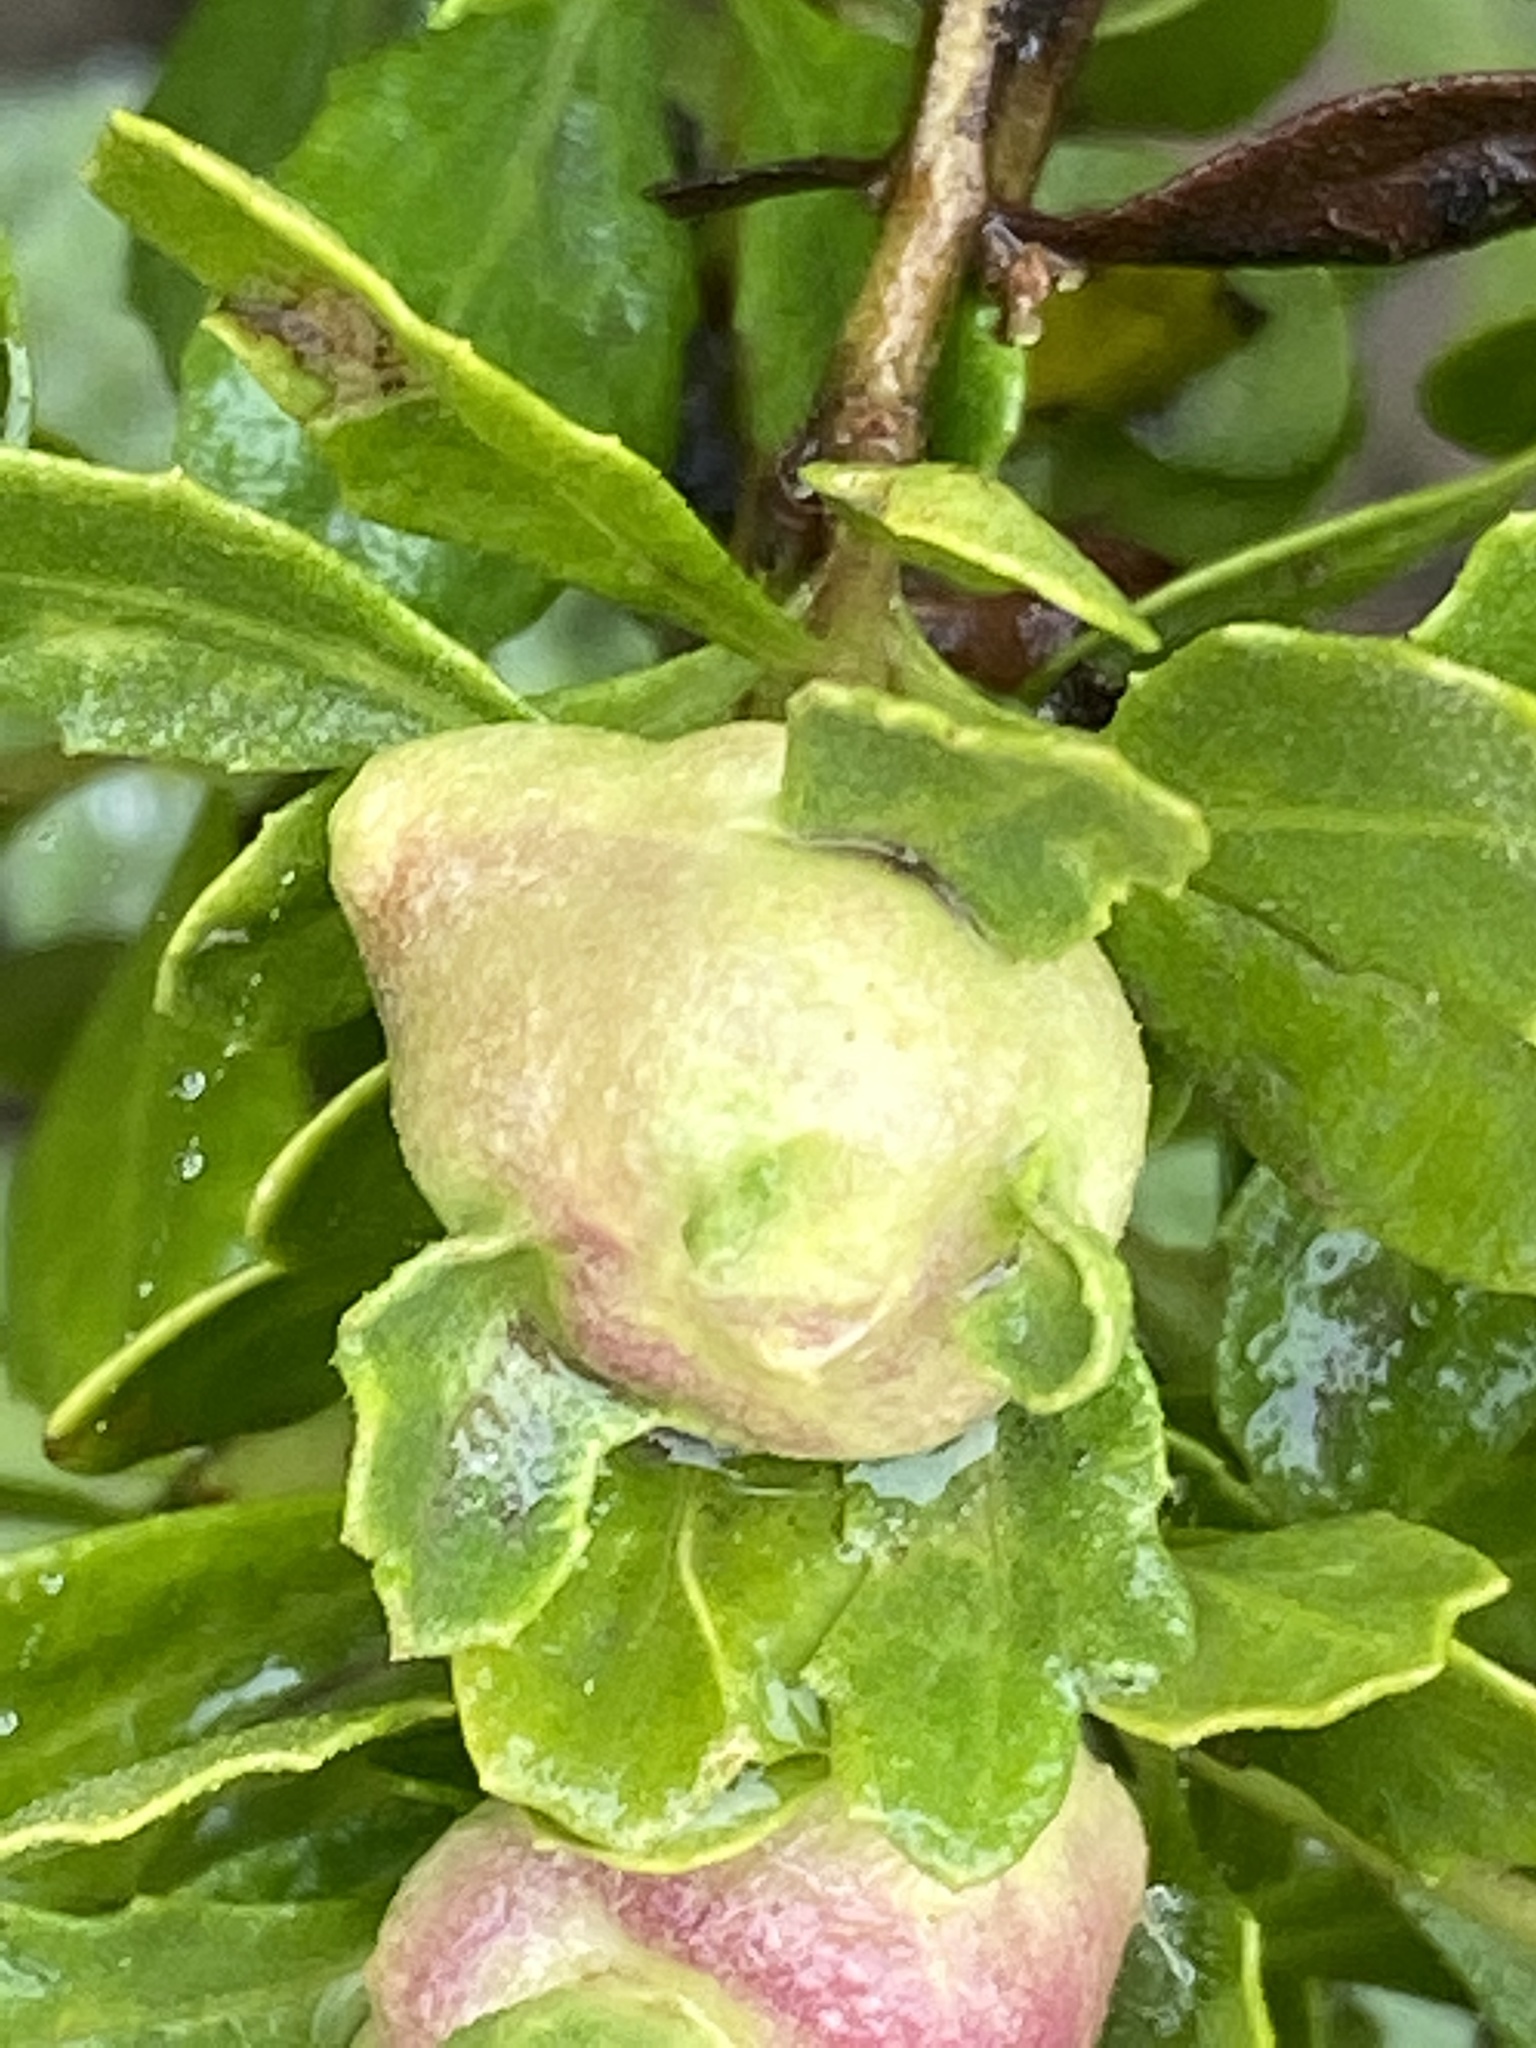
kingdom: Animalia
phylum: Arthropoda
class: Insecta
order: Diptera
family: Cecidomyiidae
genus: Rhopalomyia
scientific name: Rhopalomyia californica
